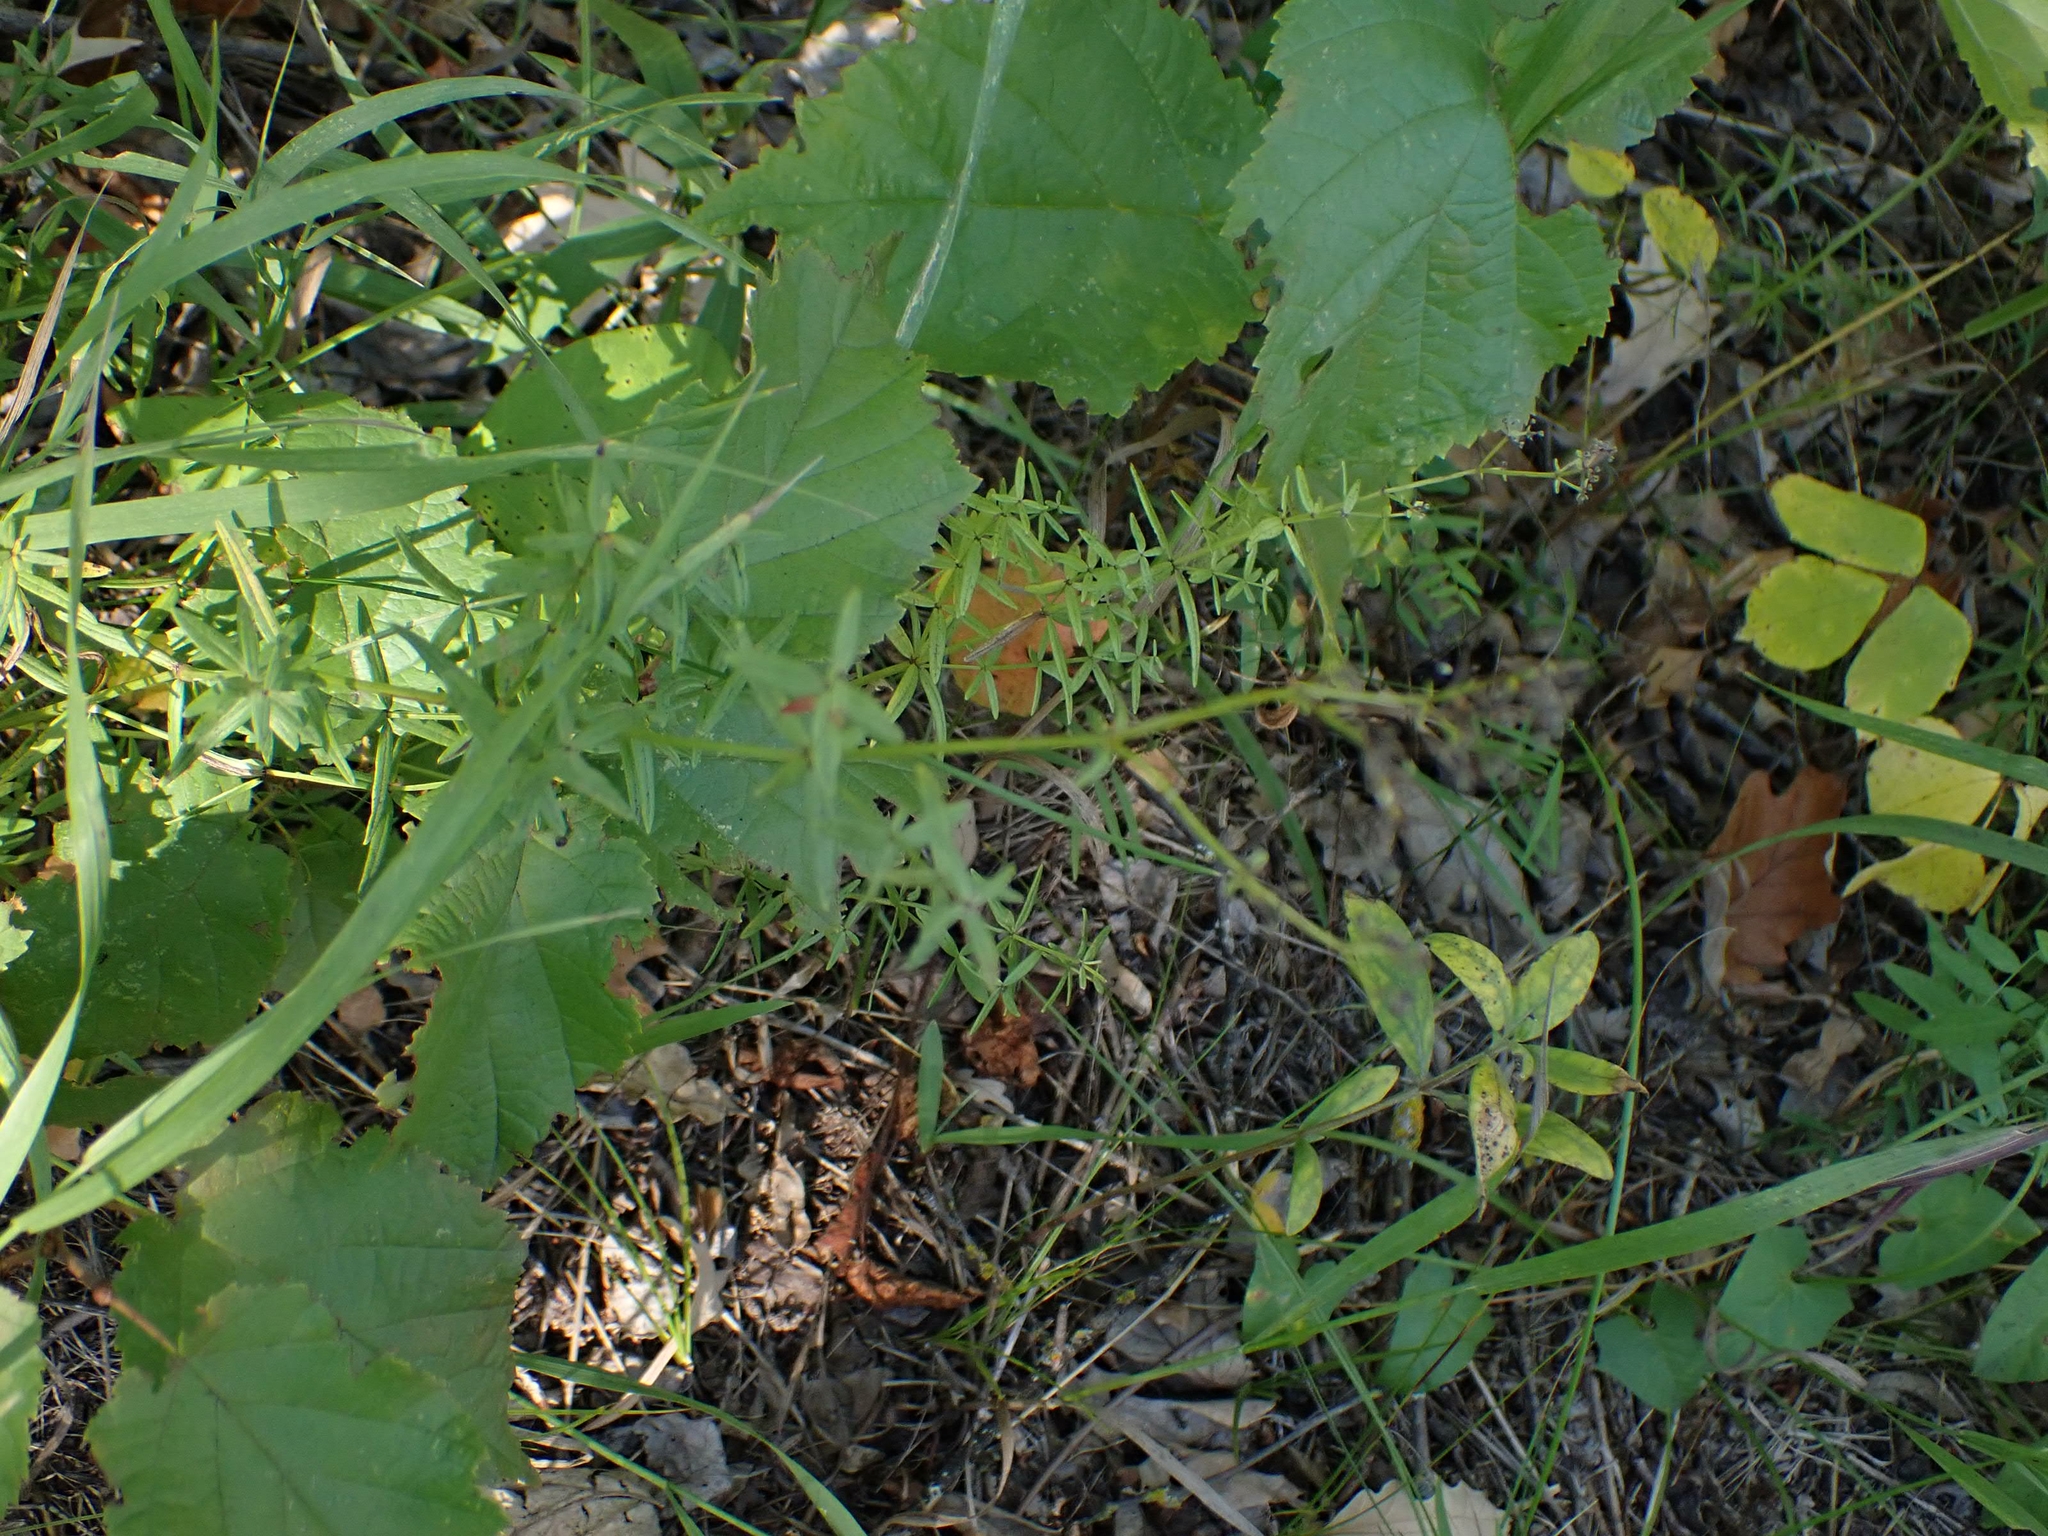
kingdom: Plantae
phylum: Tracheophyta
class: Magnoliopsida
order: Gentianales
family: Rubiaceae
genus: Galium
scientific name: Galium boreale
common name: Northern bedstraw
